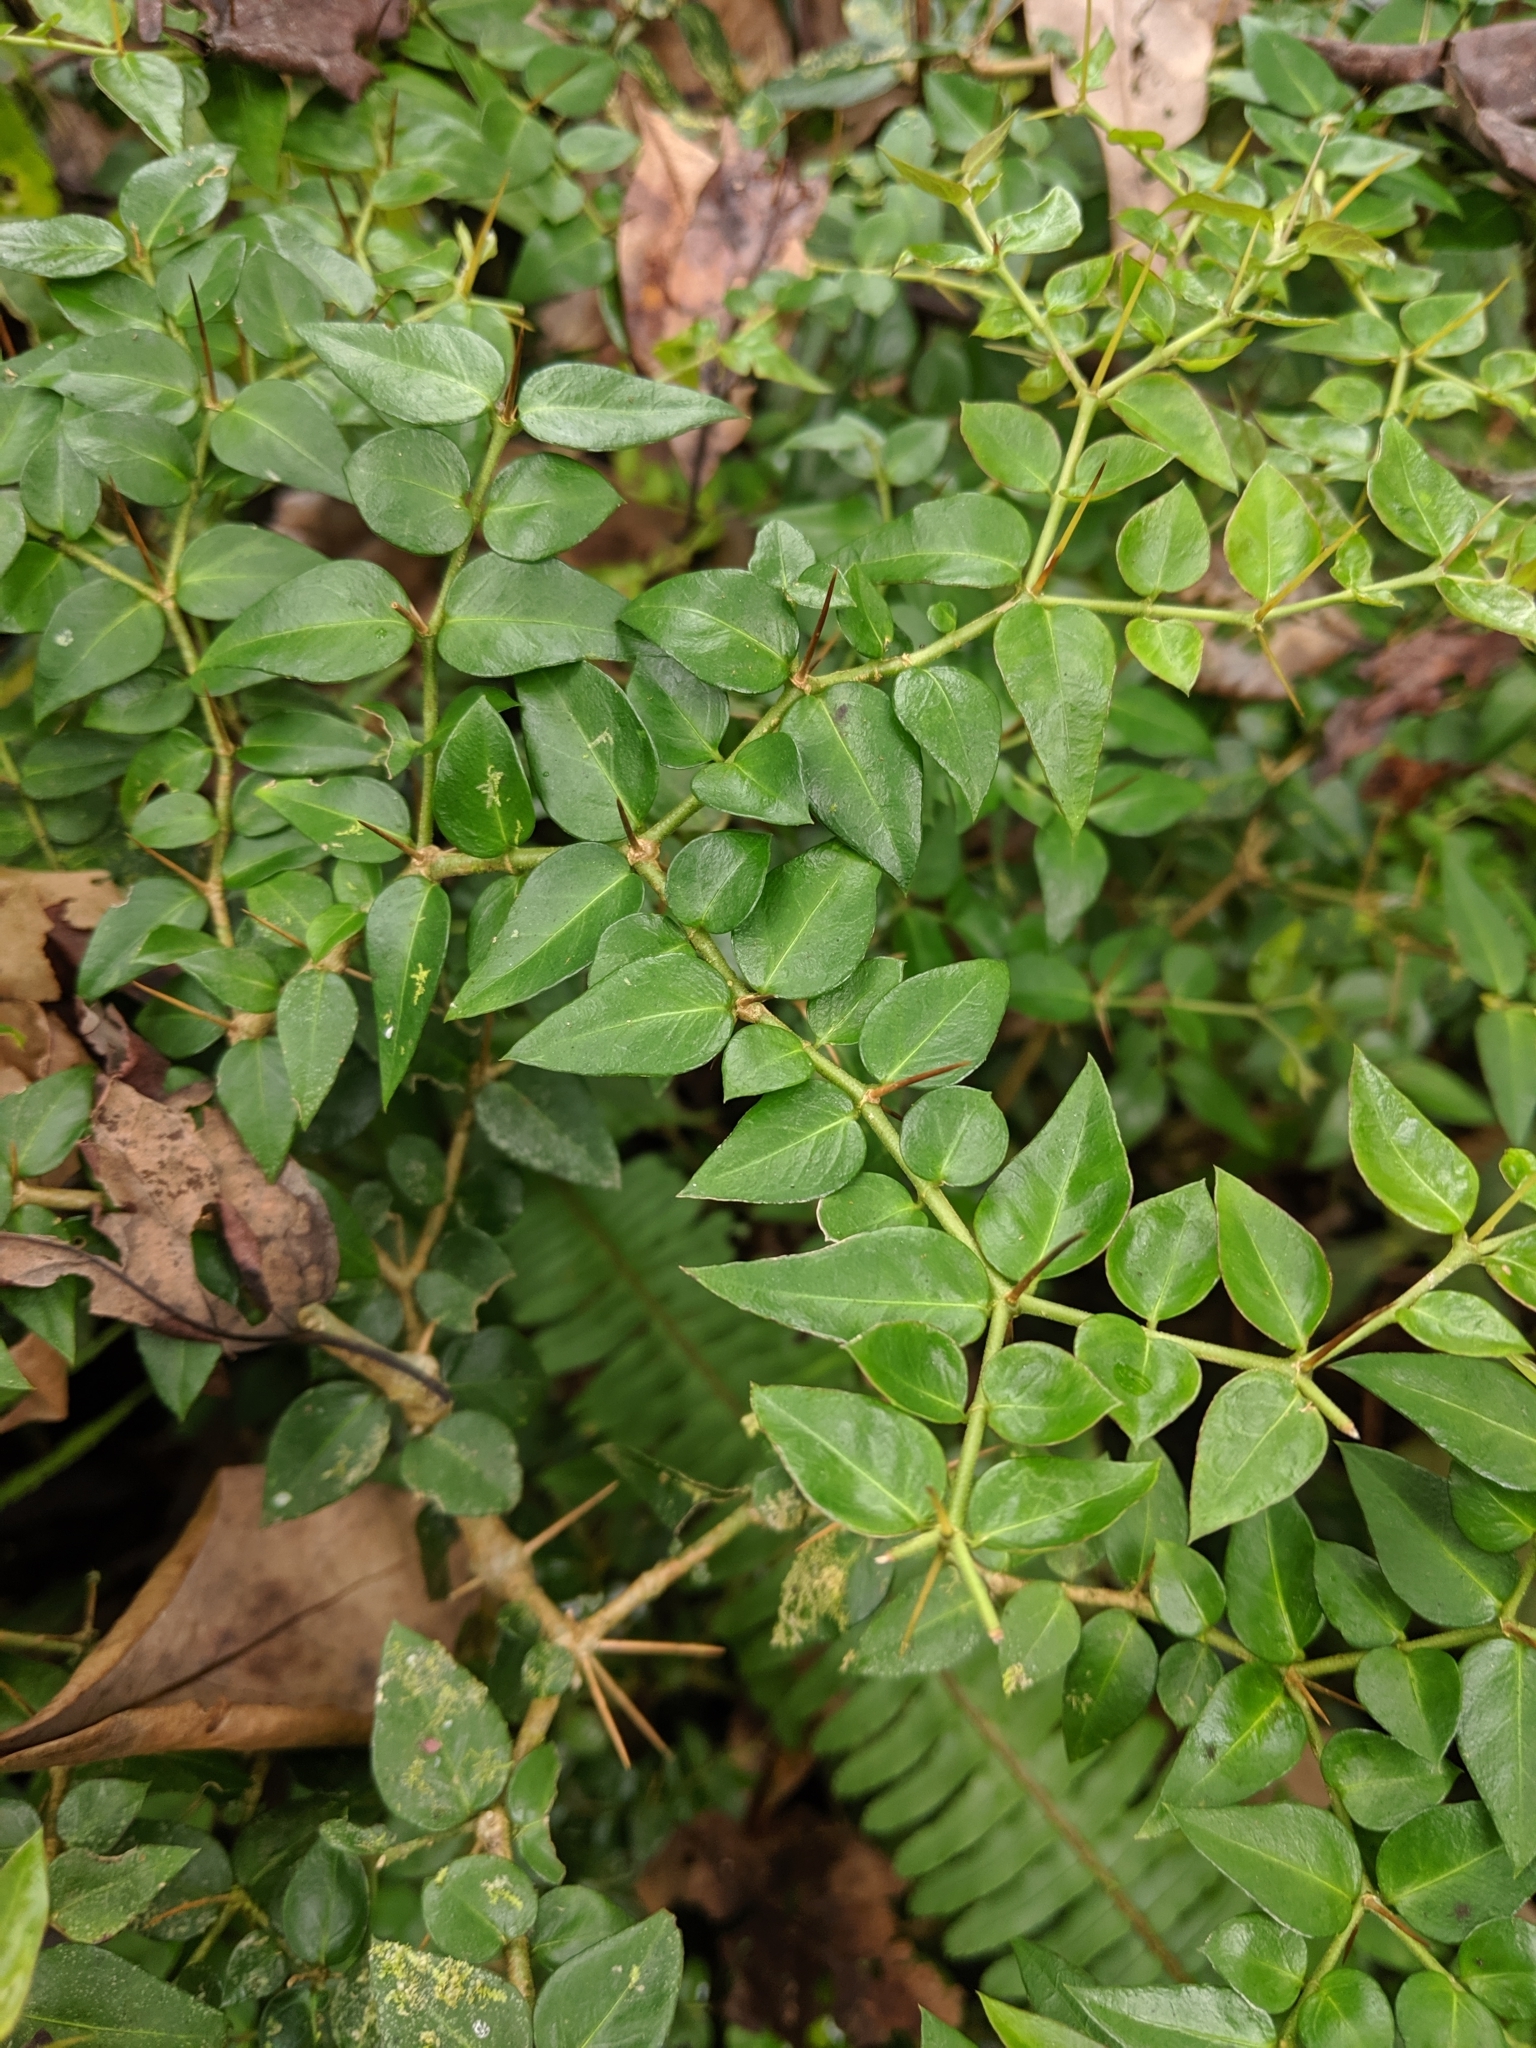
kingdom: Plantae
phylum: Tracheophyta
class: Magnoliopsida
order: Gentianales
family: Rubiaceae
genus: Damnacanthus
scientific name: Damnacanthus indicus
